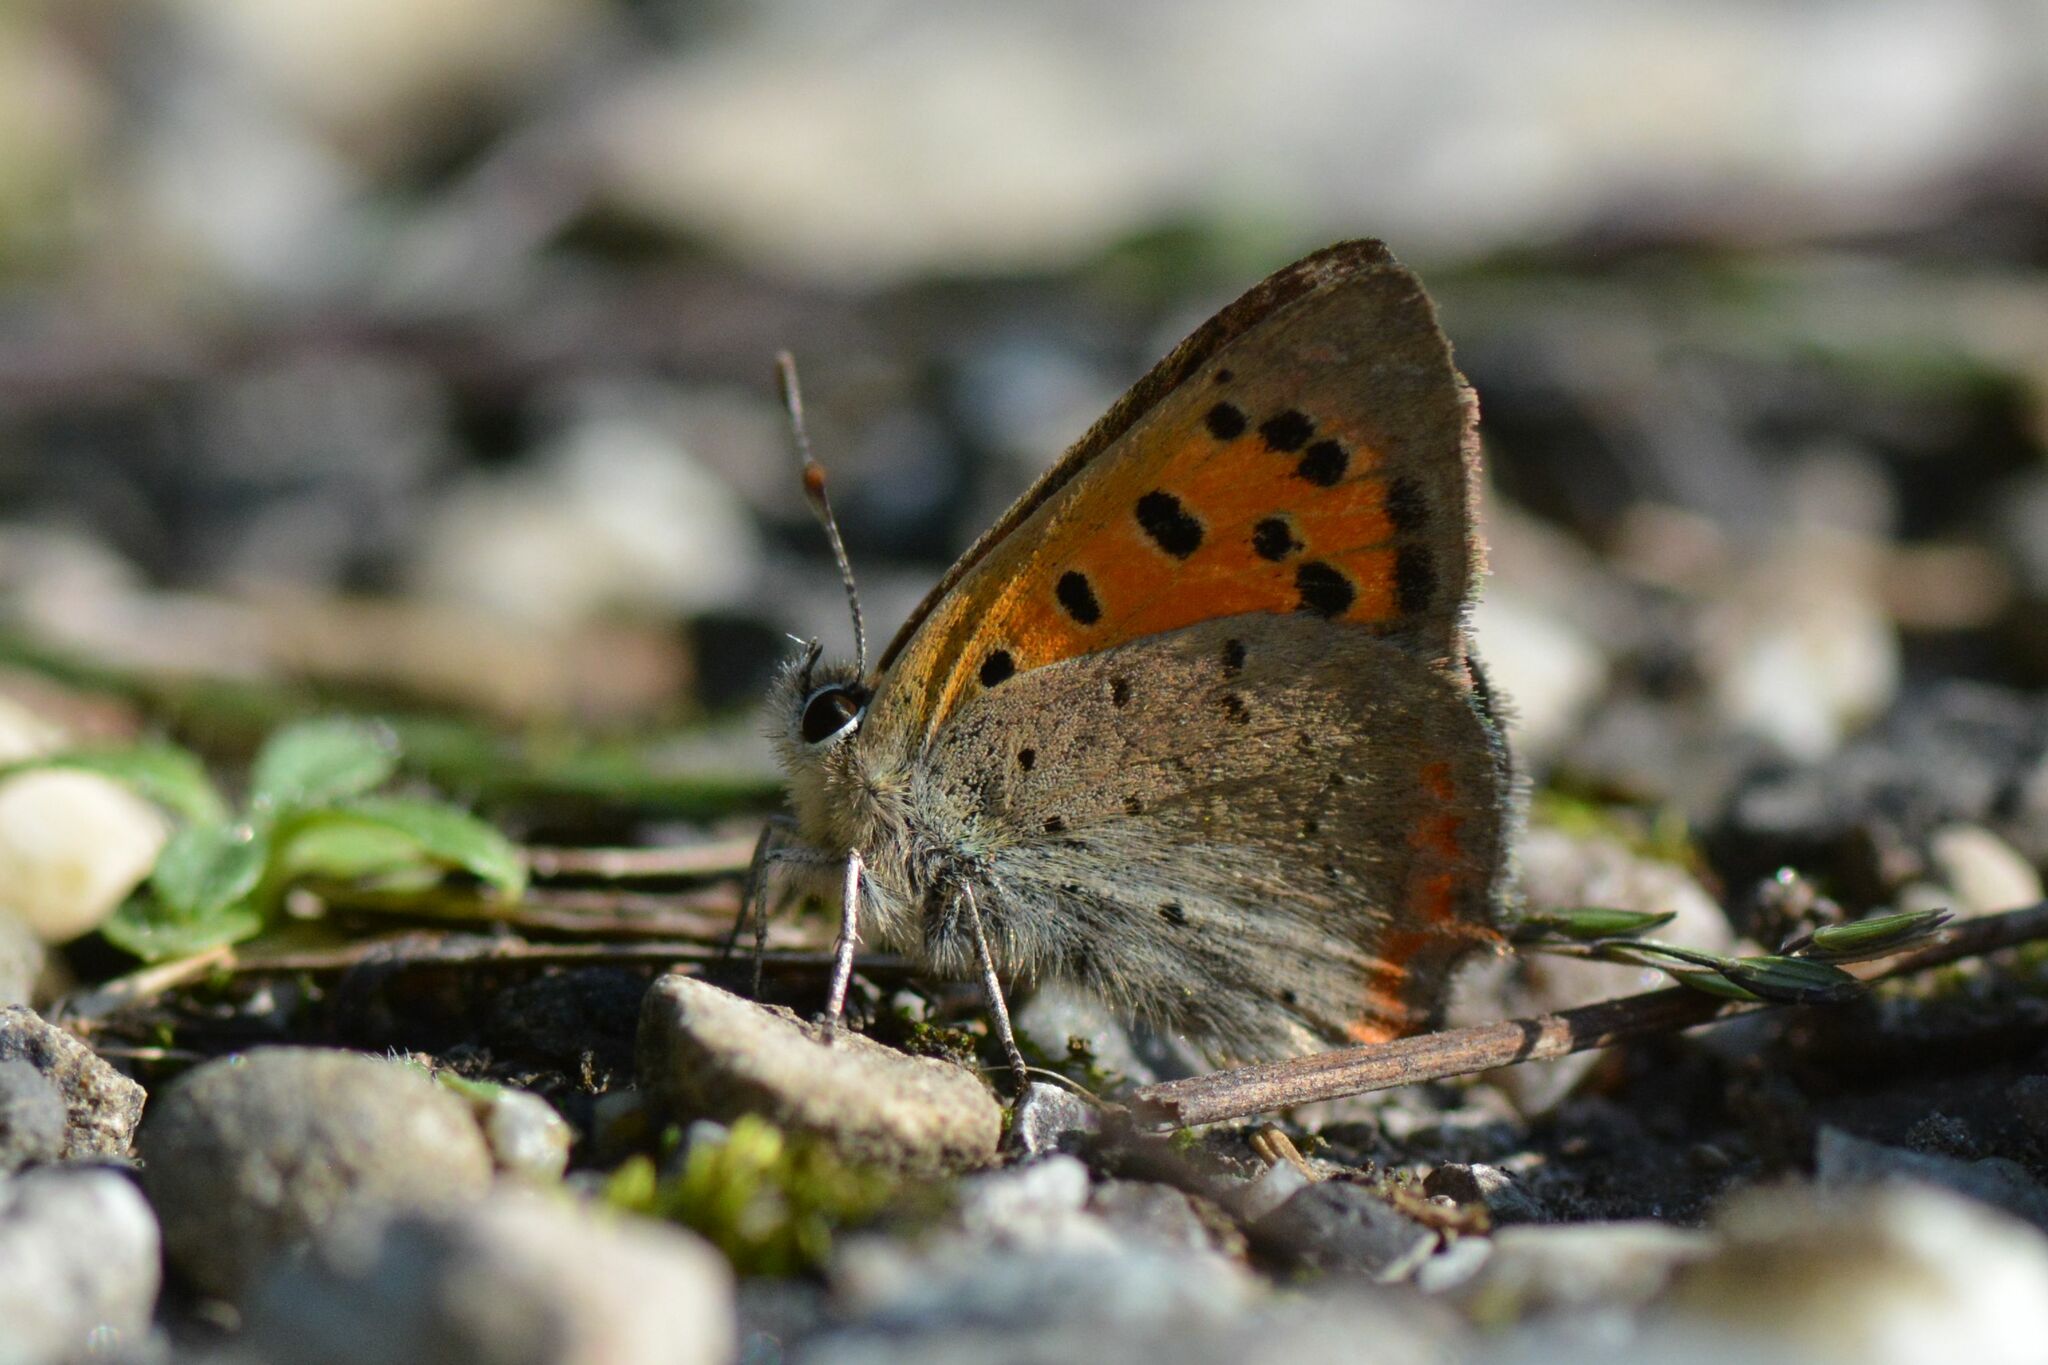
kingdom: Animalia
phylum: Arthropoda
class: Insecta
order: Lepidoptera
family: Lycaenidae
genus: Lycaena
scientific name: Lycaena phlaeas
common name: Small copper
